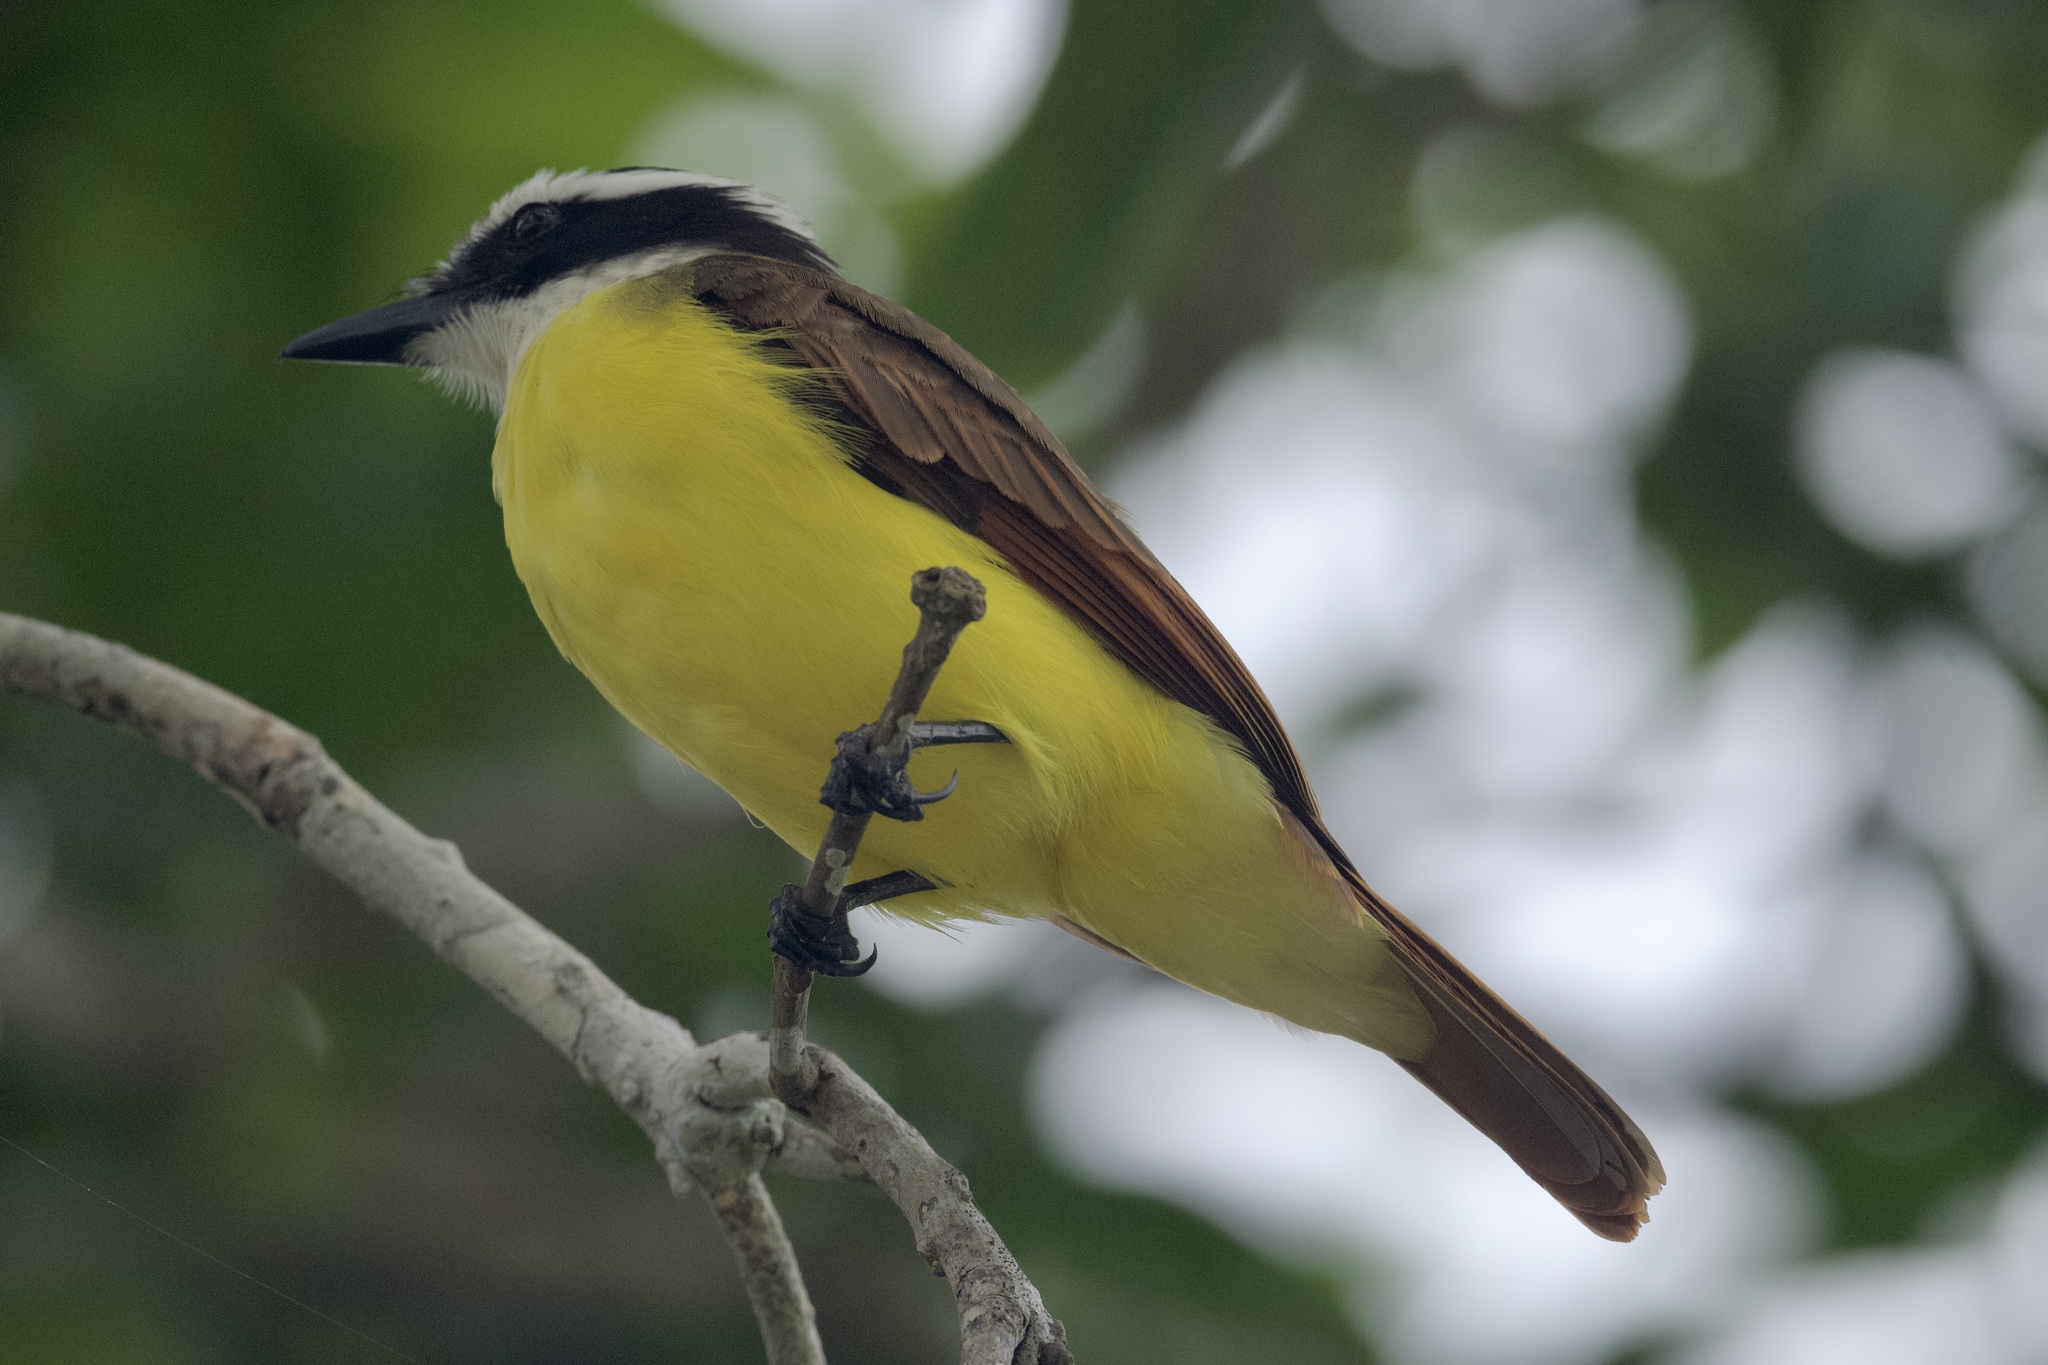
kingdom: Animalia
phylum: Chordata
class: Aves
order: Passeriformes
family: Tyrannidae
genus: Pitangus
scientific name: Pitangus sulphuratus
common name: Great kiskadee
